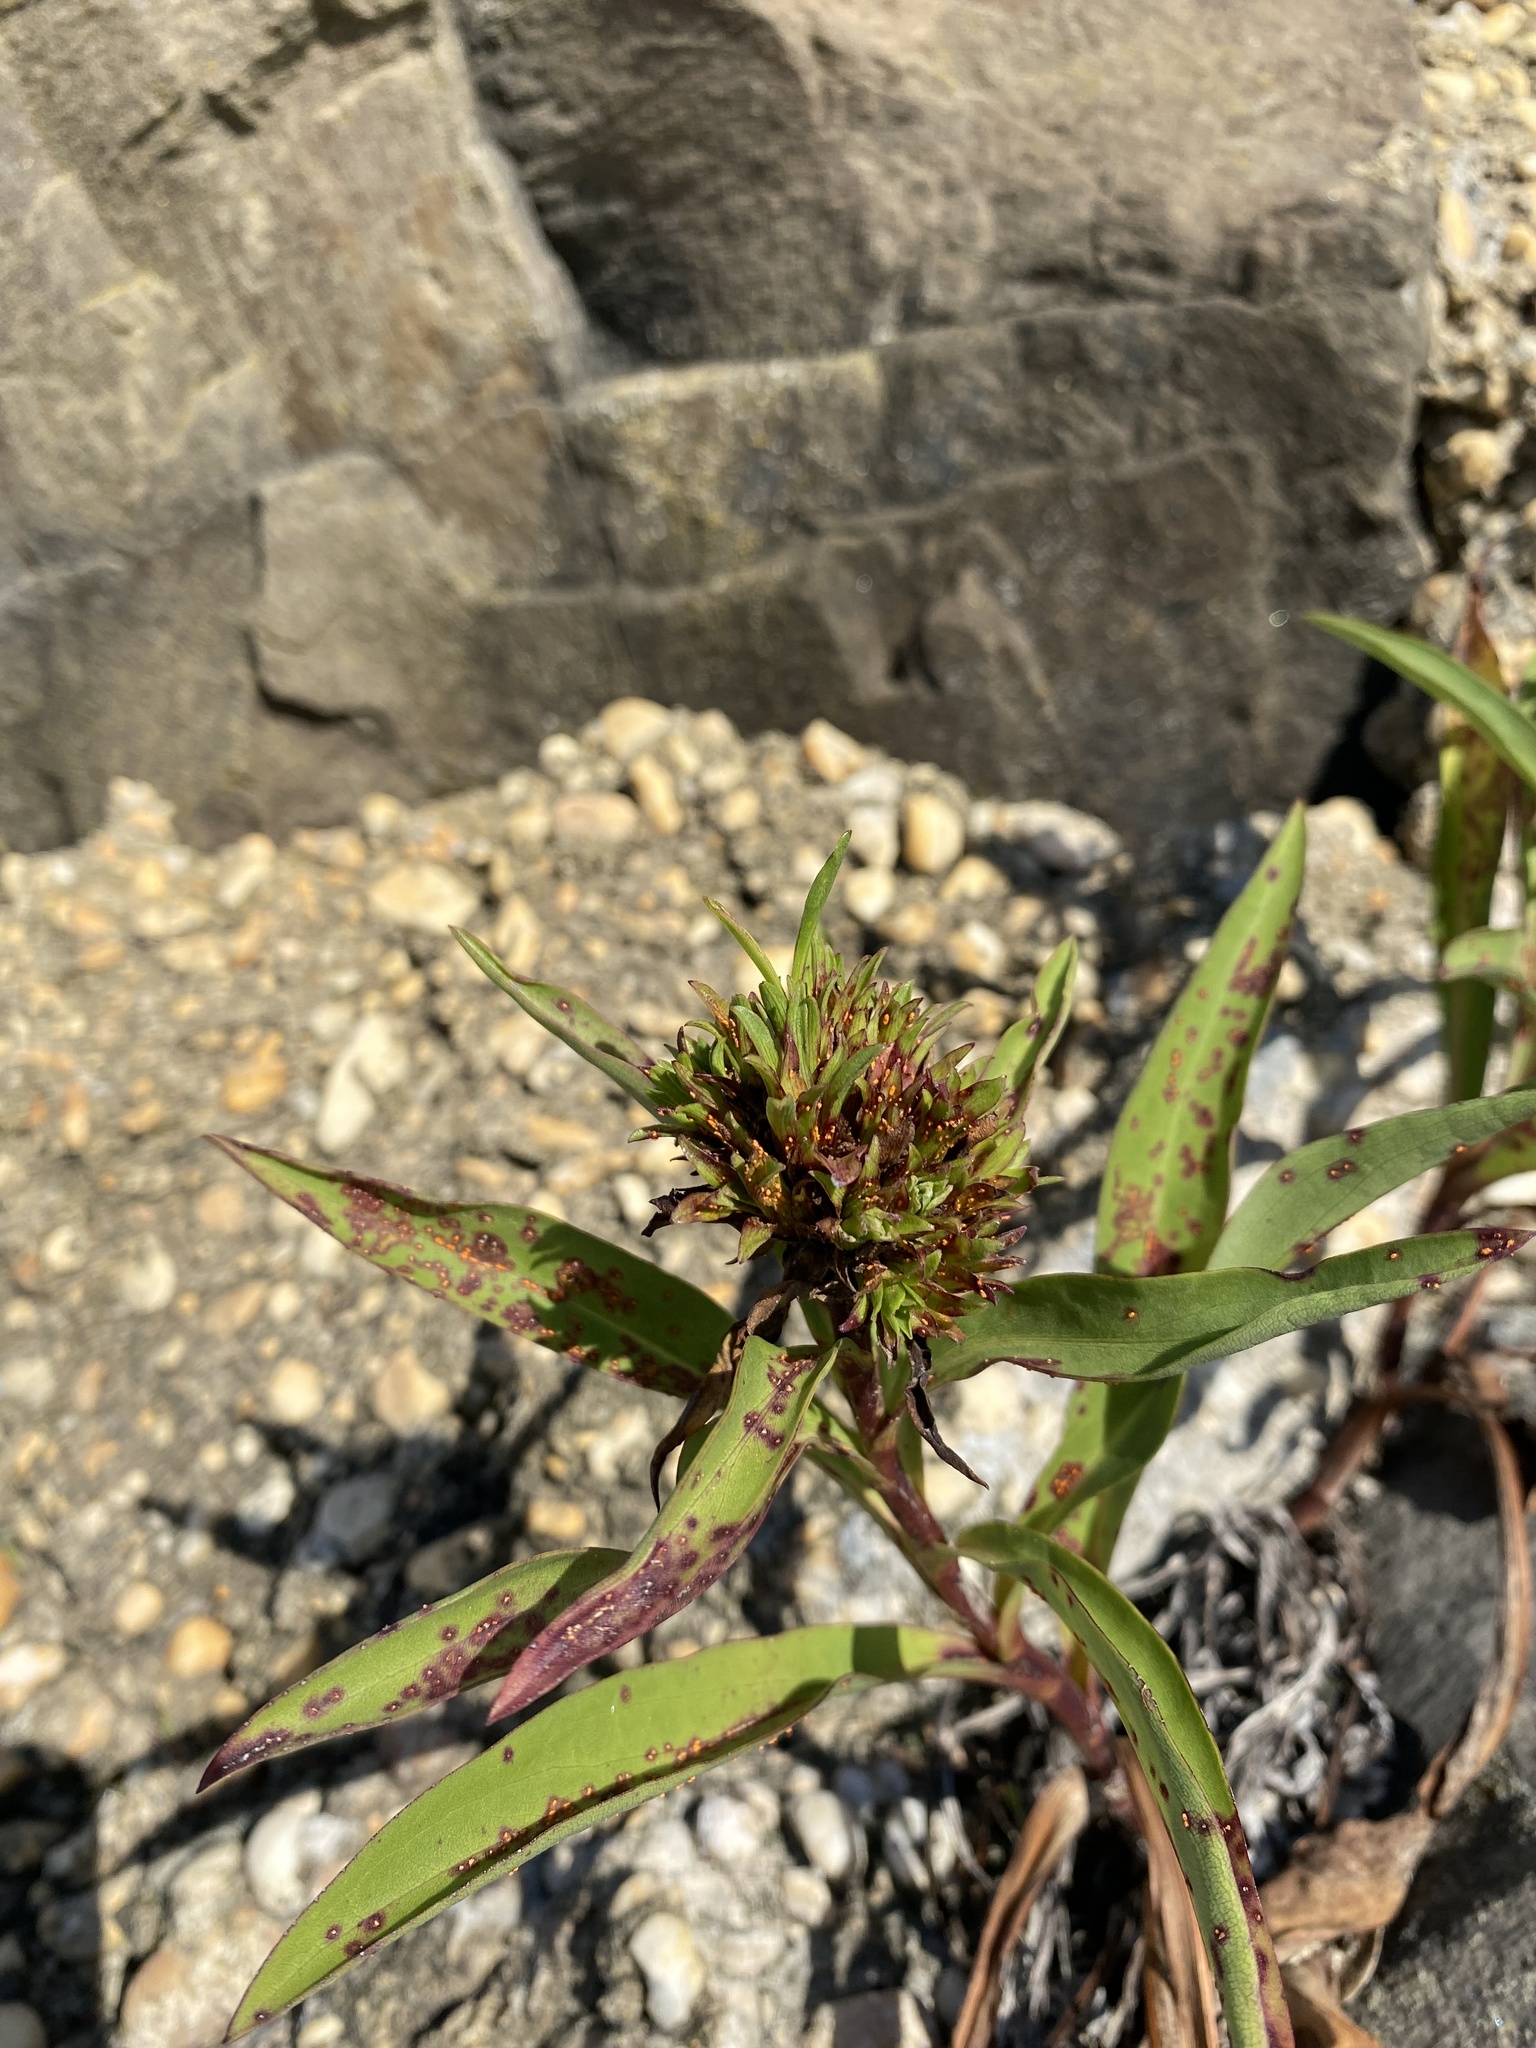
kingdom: Fungi
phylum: Basidiomycota
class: Pucciniomycetes
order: Pucciniales
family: Coleosporiaceae
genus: Coleosporium
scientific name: Coleosporium asterum
